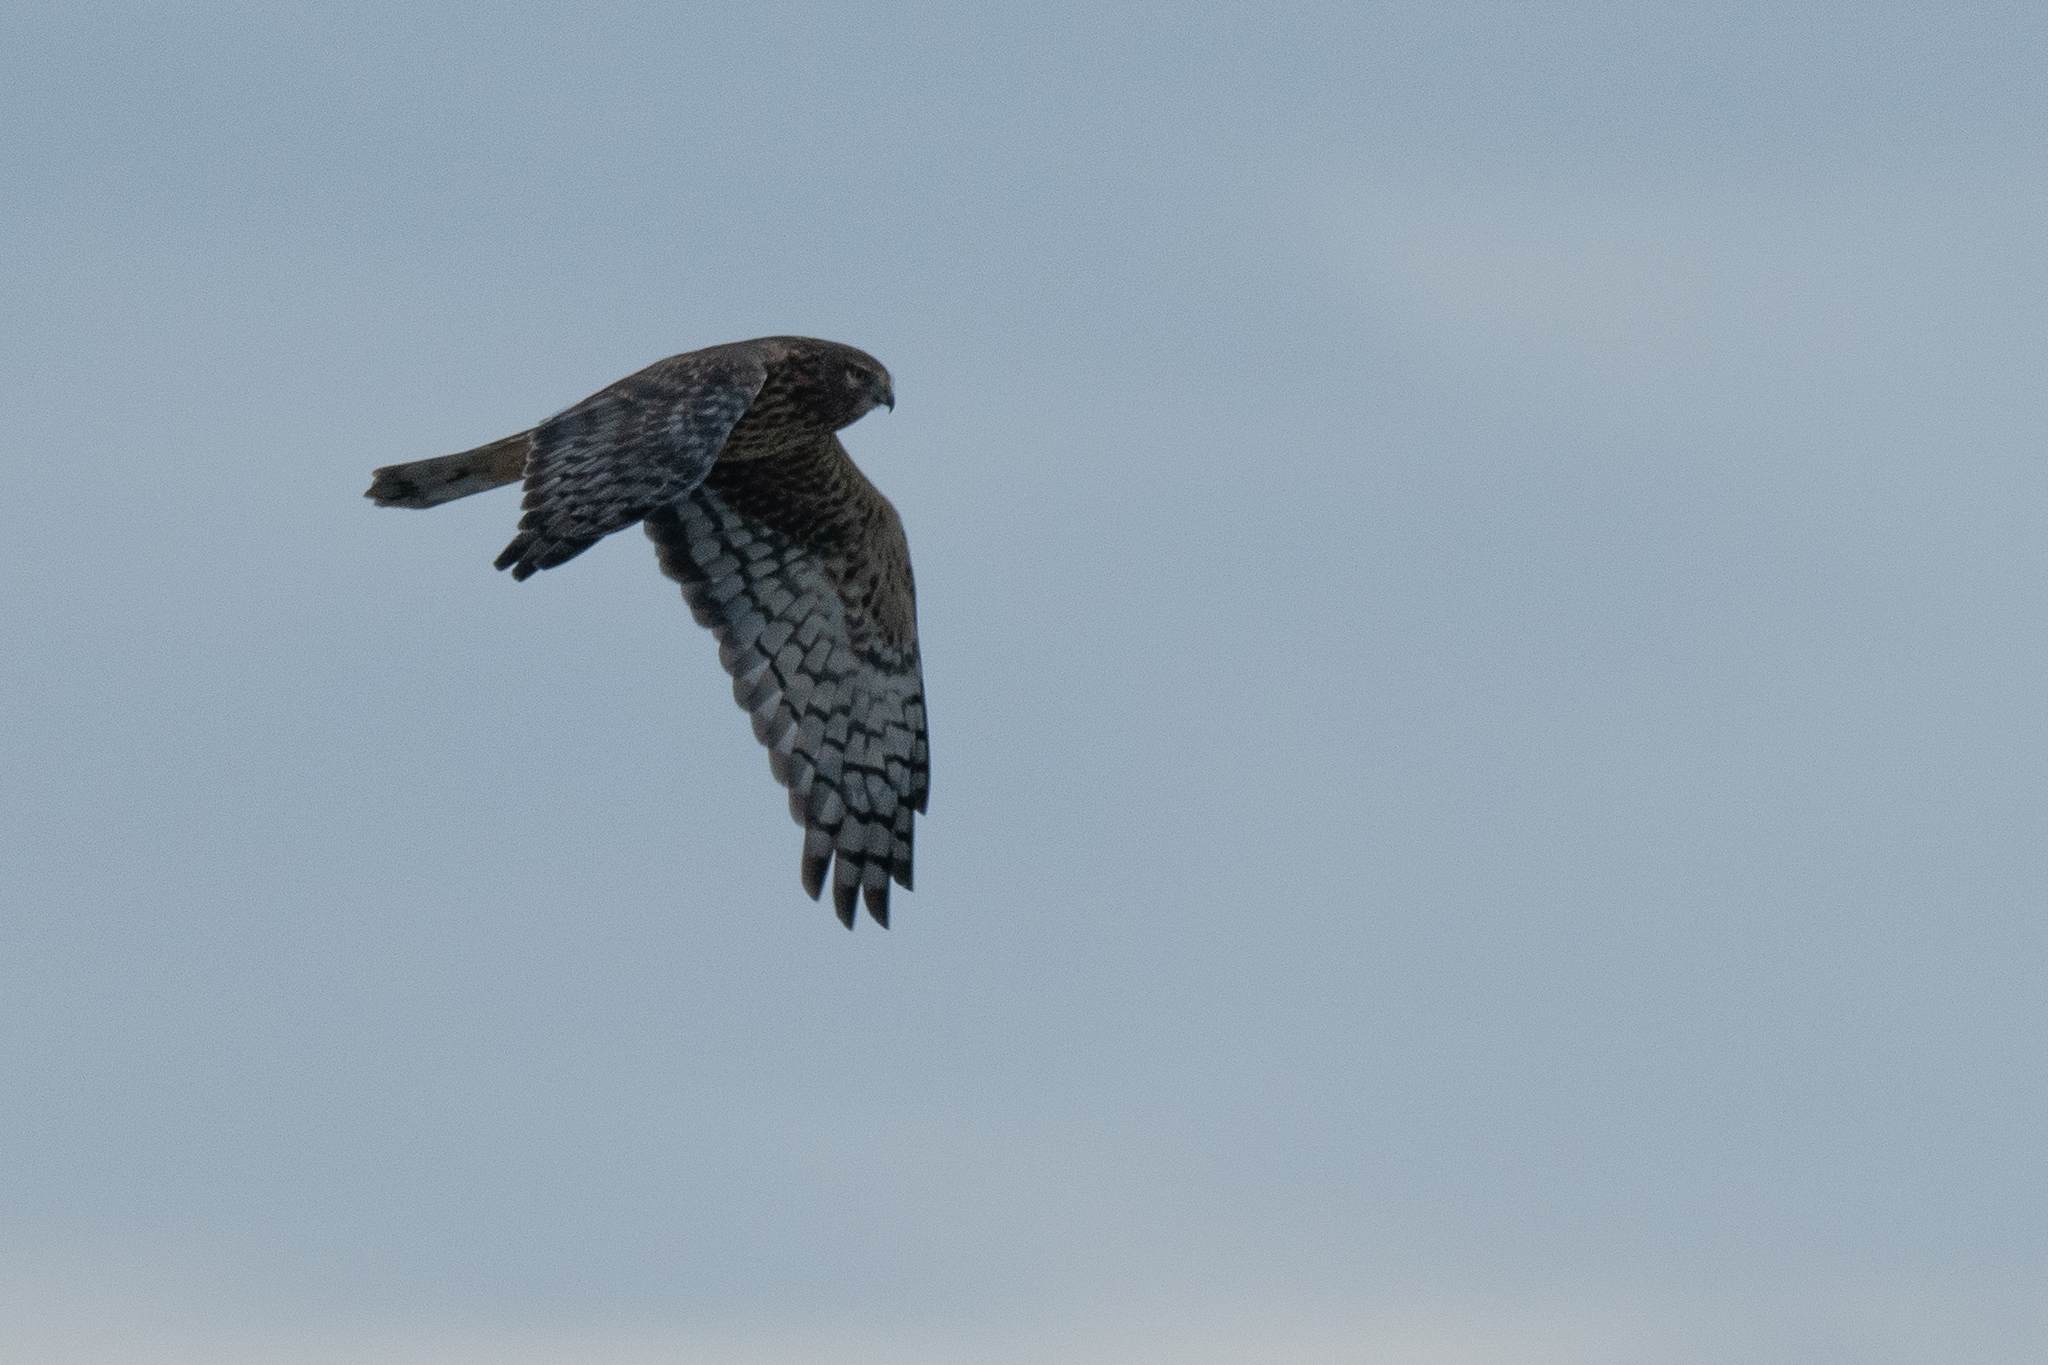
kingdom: Animalia
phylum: Chordata
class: Aves
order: Accipitriformes
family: Accipitridae
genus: Circus
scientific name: Circus cyaneus
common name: Hen harrier
